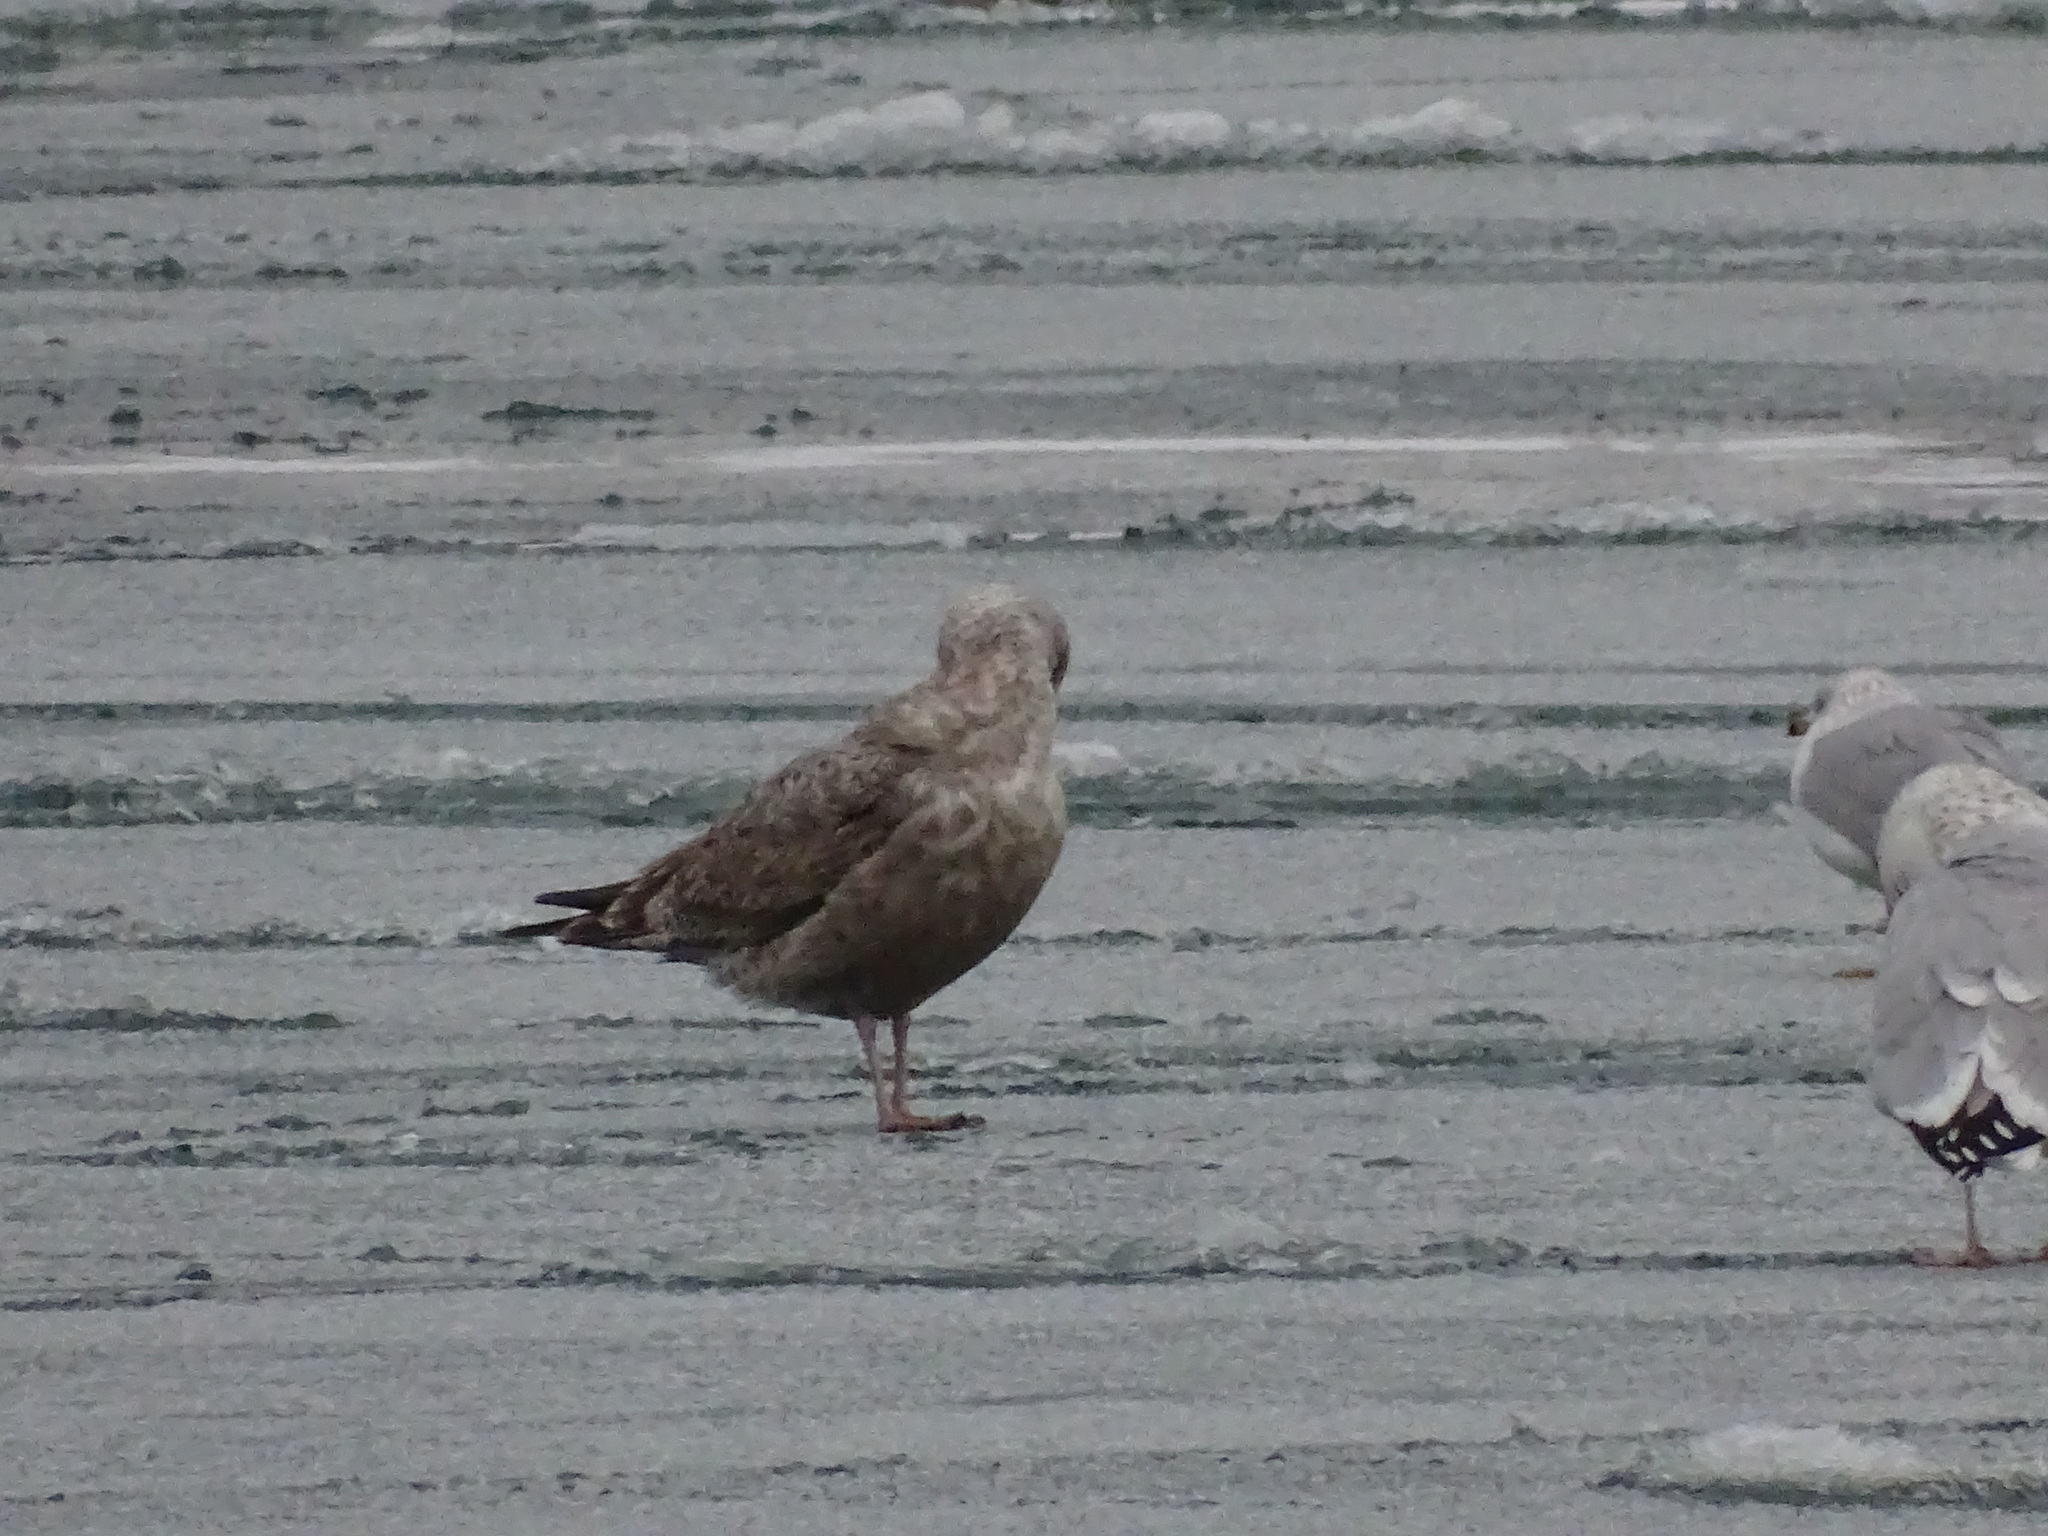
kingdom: Animalia
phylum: Chordata
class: Aves
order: Charadriiformes
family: Laridae
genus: Larus
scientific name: Larus argentatus
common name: Herring gull
